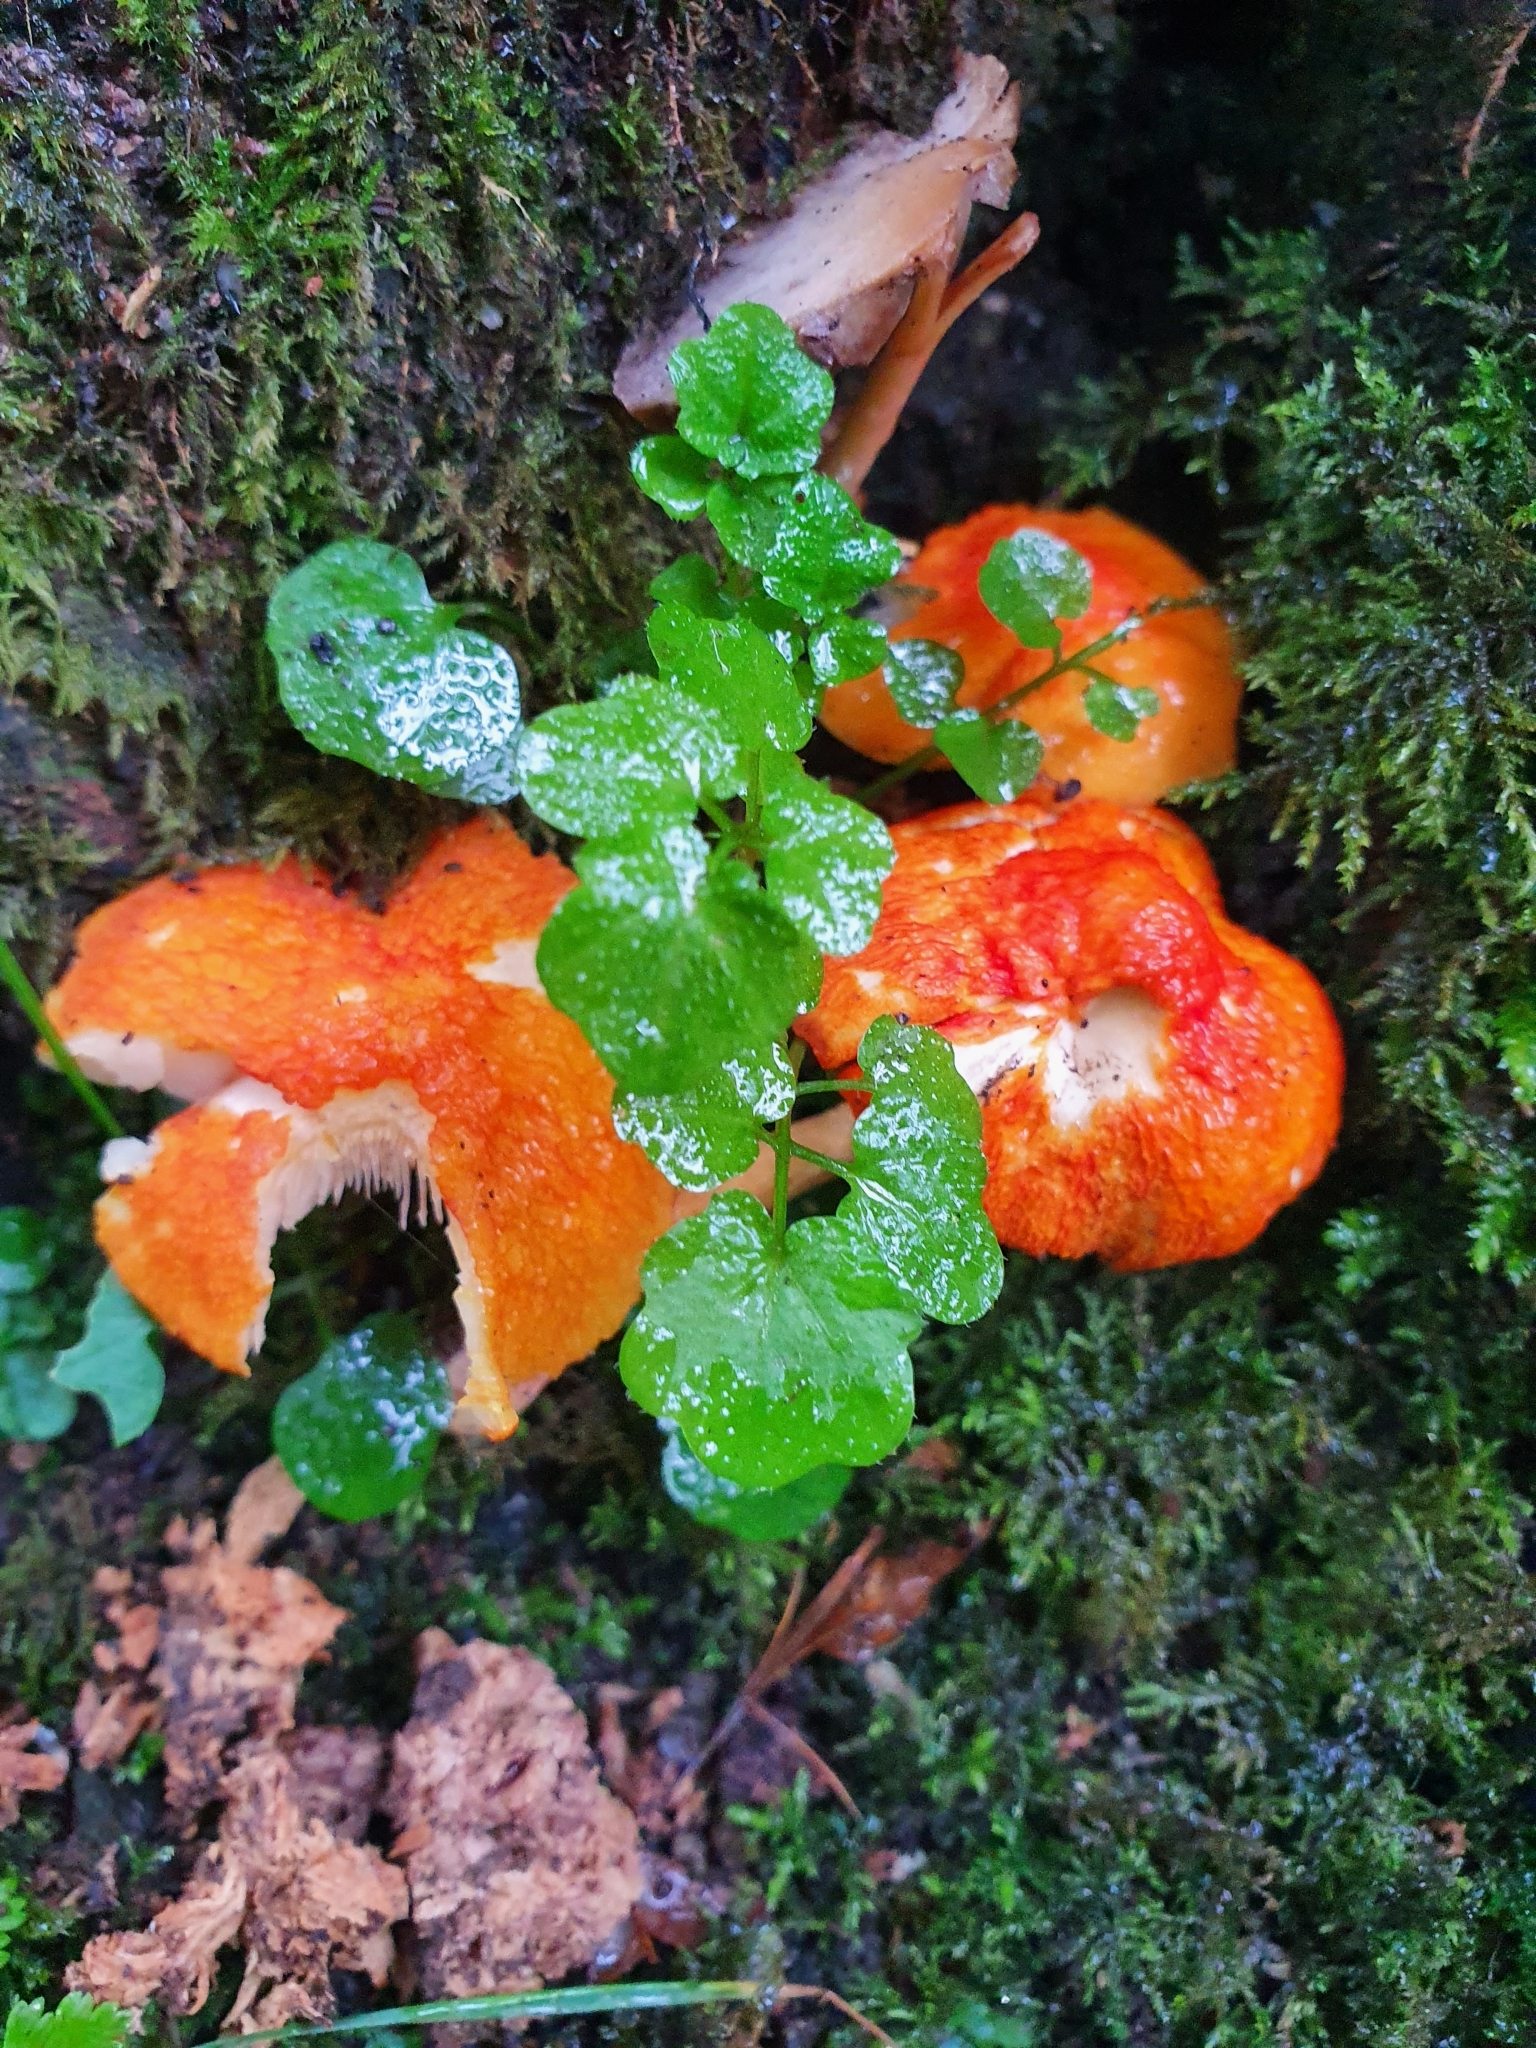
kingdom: Fungi
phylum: Basidiomycota
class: Agaricomycetes
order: Agaricales
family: Pluteaceae
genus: Pluteus
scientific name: Pluteus aurantiorugosus
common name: Flame shield
